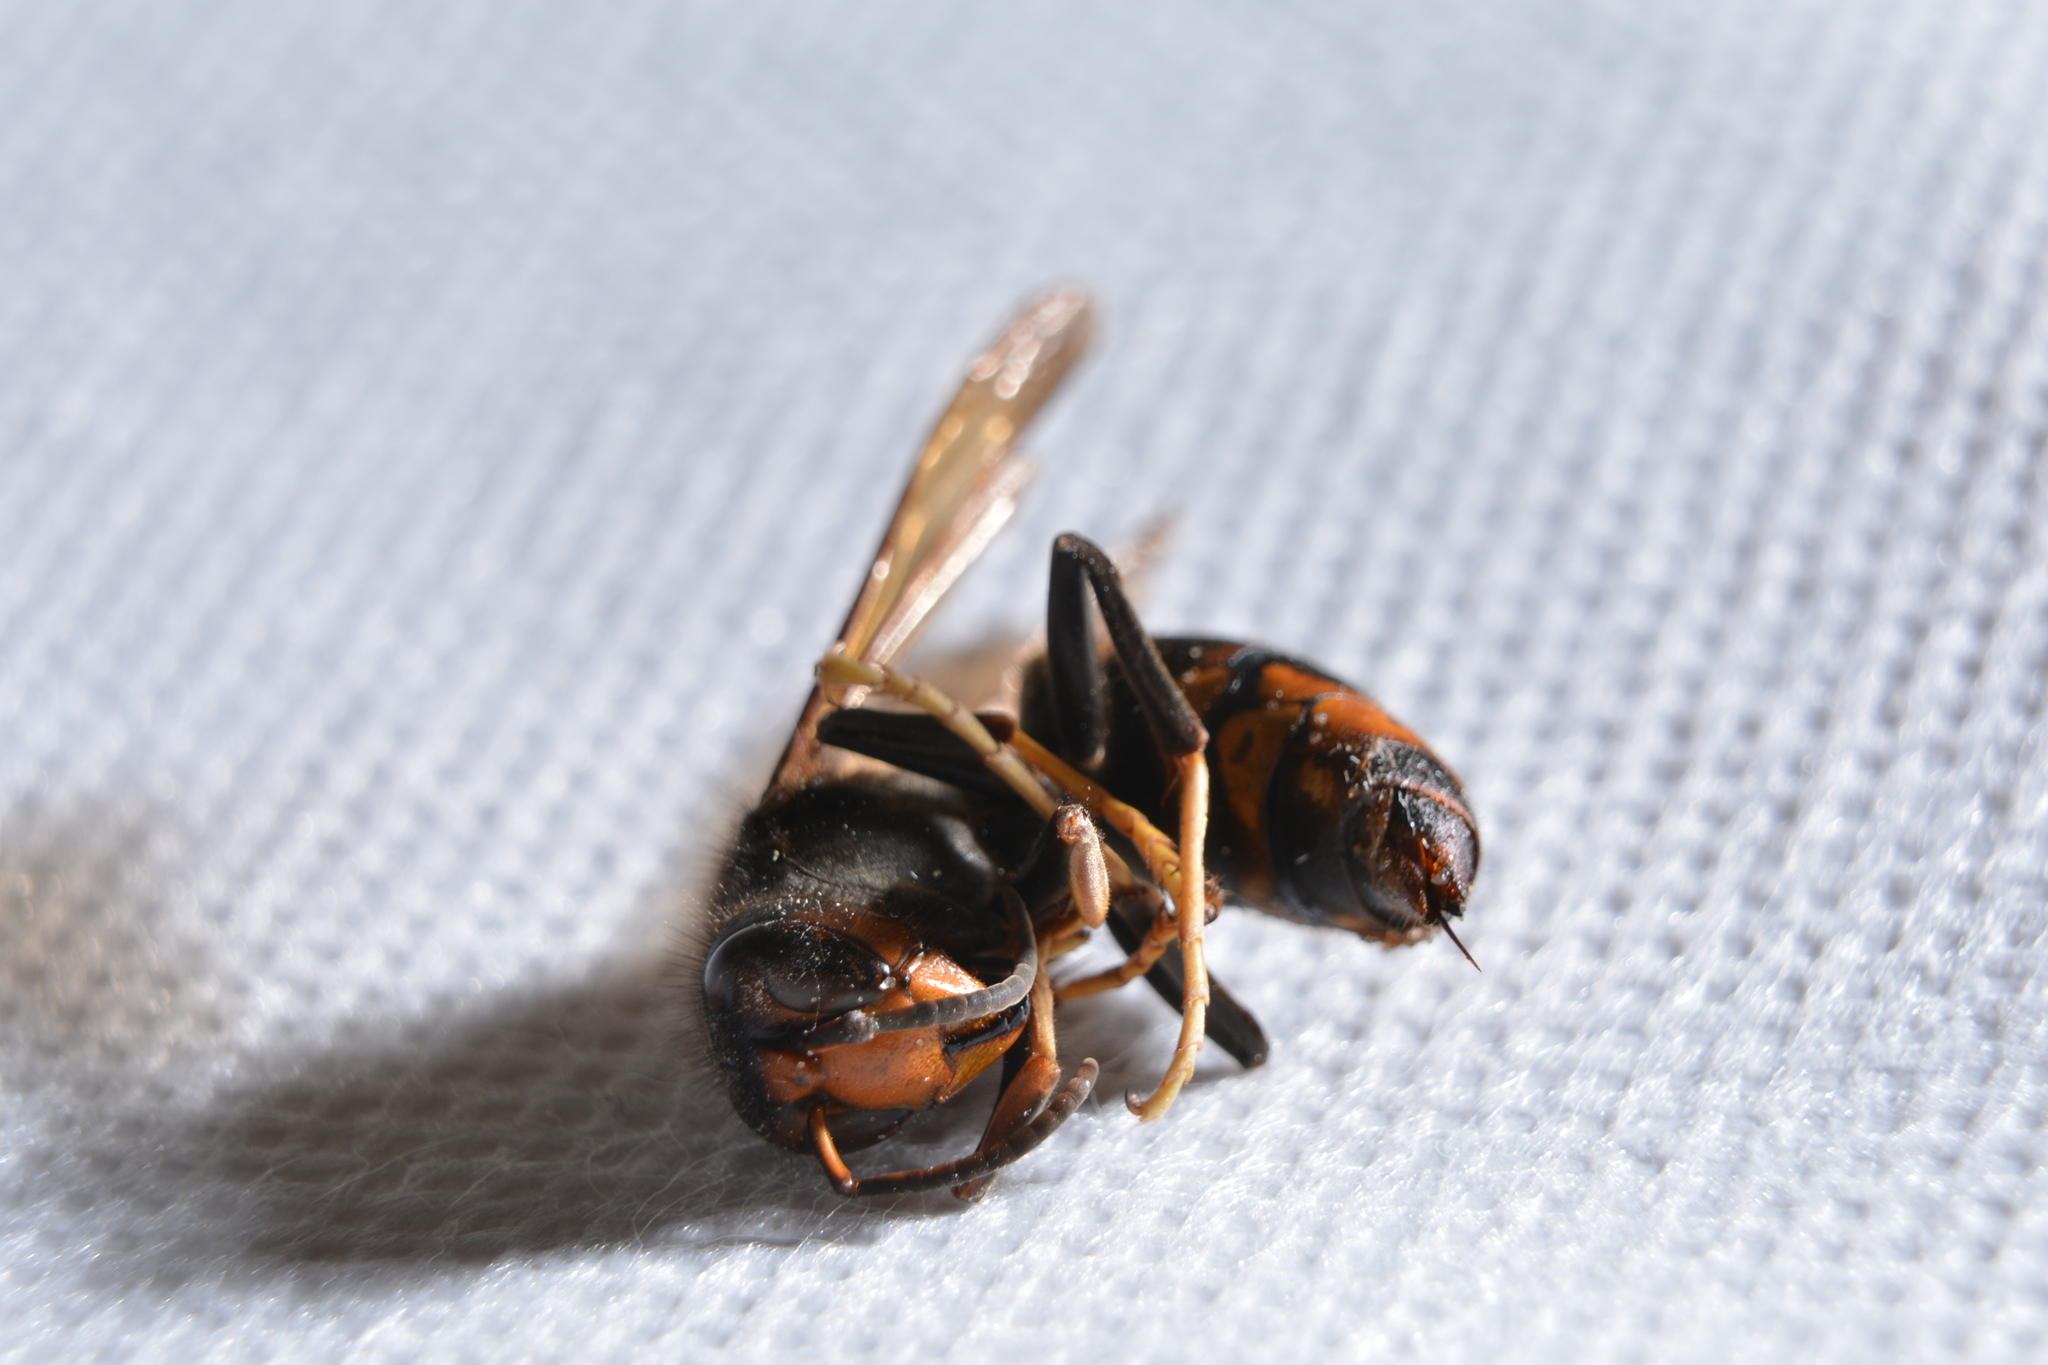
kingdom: Animalia
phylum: Arthropoda
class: Insecta
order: Hymenoptera
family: Vespidae
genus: Vespa
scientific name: Vespa velutina
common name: Asian hornet
